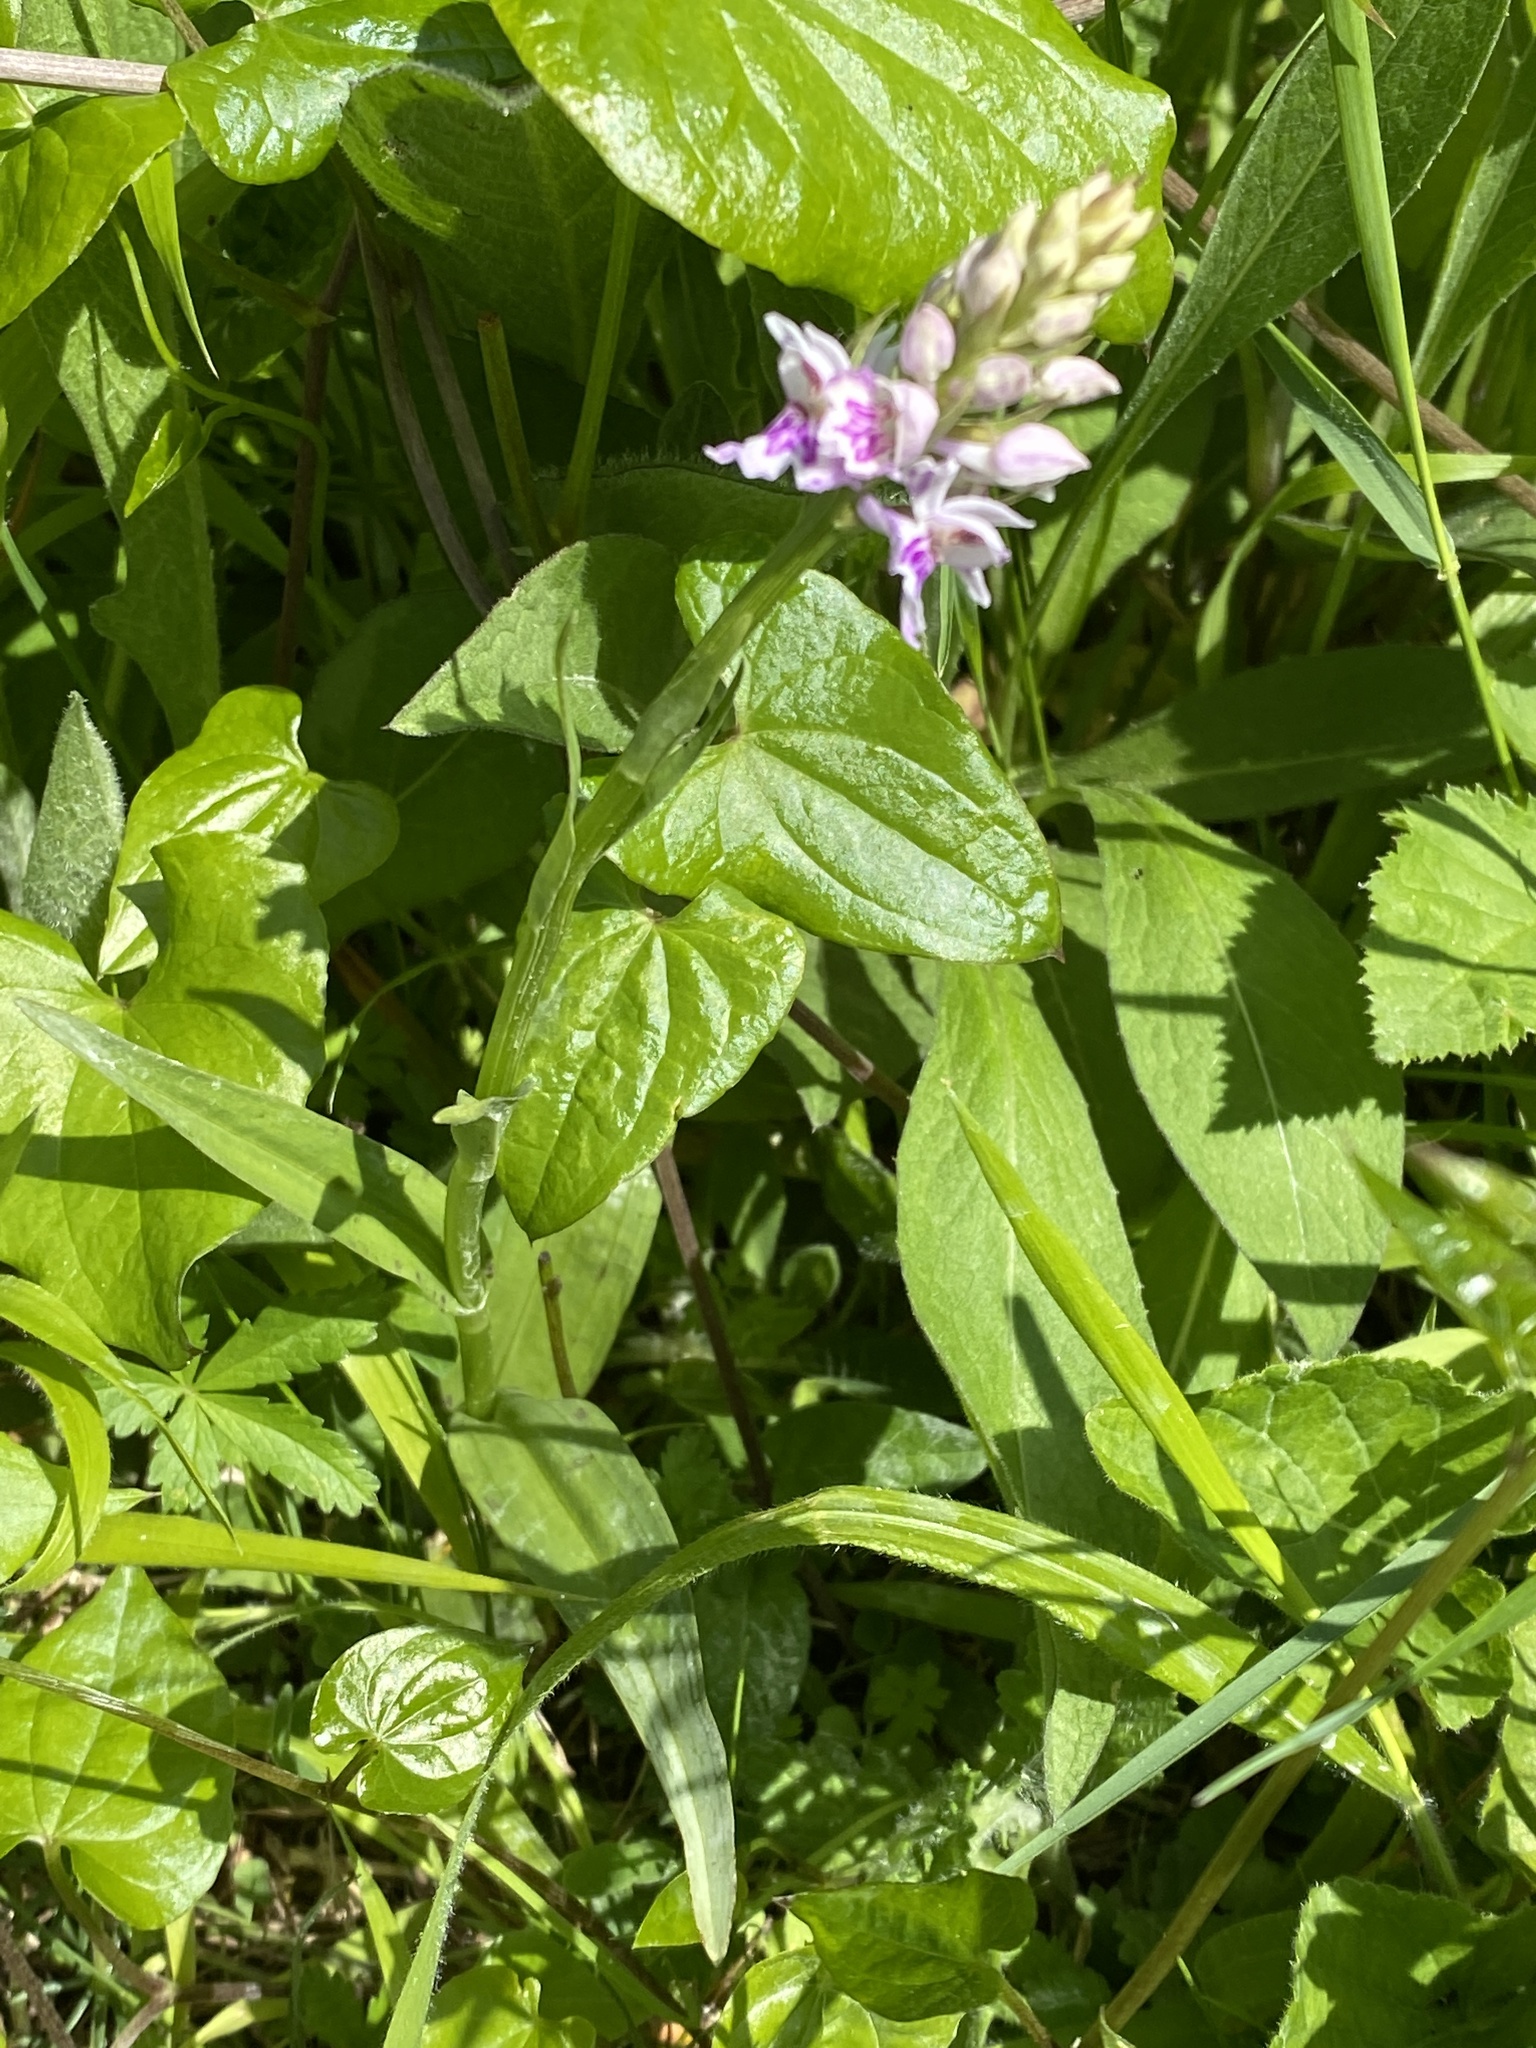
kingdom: Plantae
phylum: Tracheophyta
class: Liliopsida
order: Asparagales
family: Orchidaceae
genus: Dactylorhiza
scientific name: Dactylorhiza maculata
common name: Heath spotted-orchid
